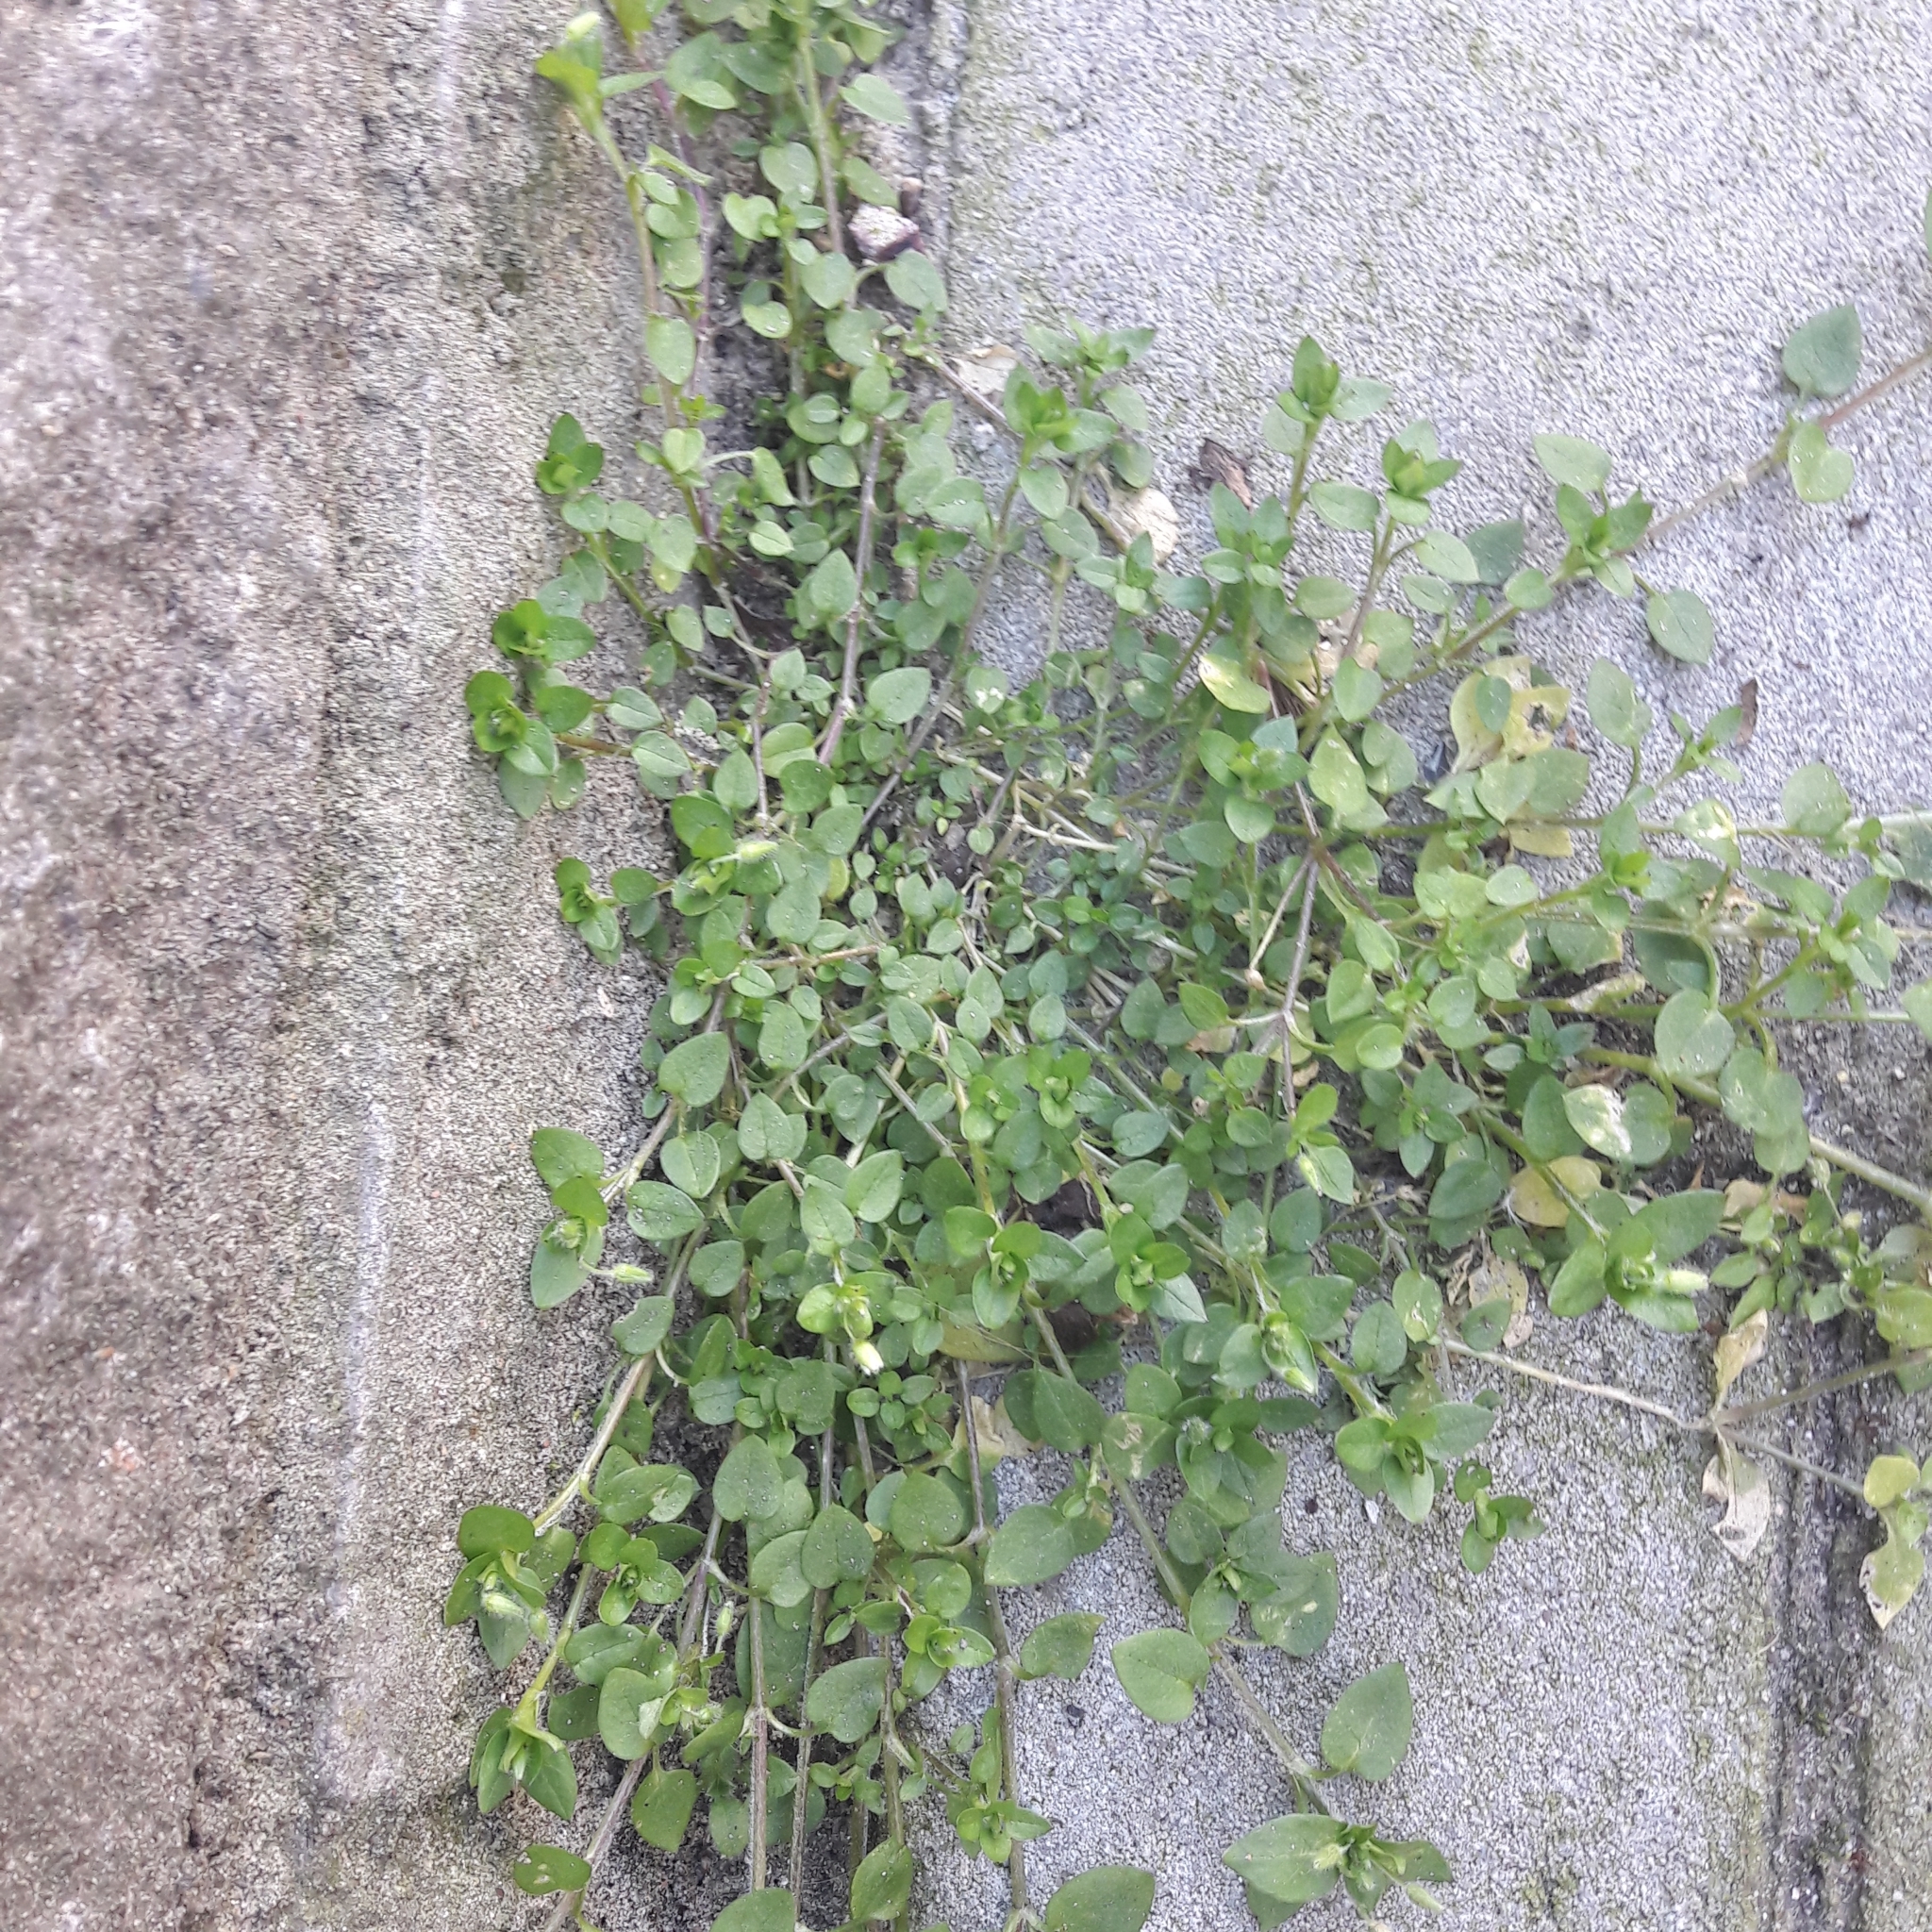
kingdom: Plantae
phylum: Tracheophyta
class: Magnoliopsida
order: Caryophyllales
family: Caryophyllaceae
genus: Stellaria
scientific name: Stellaria media
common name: Common chickweed
